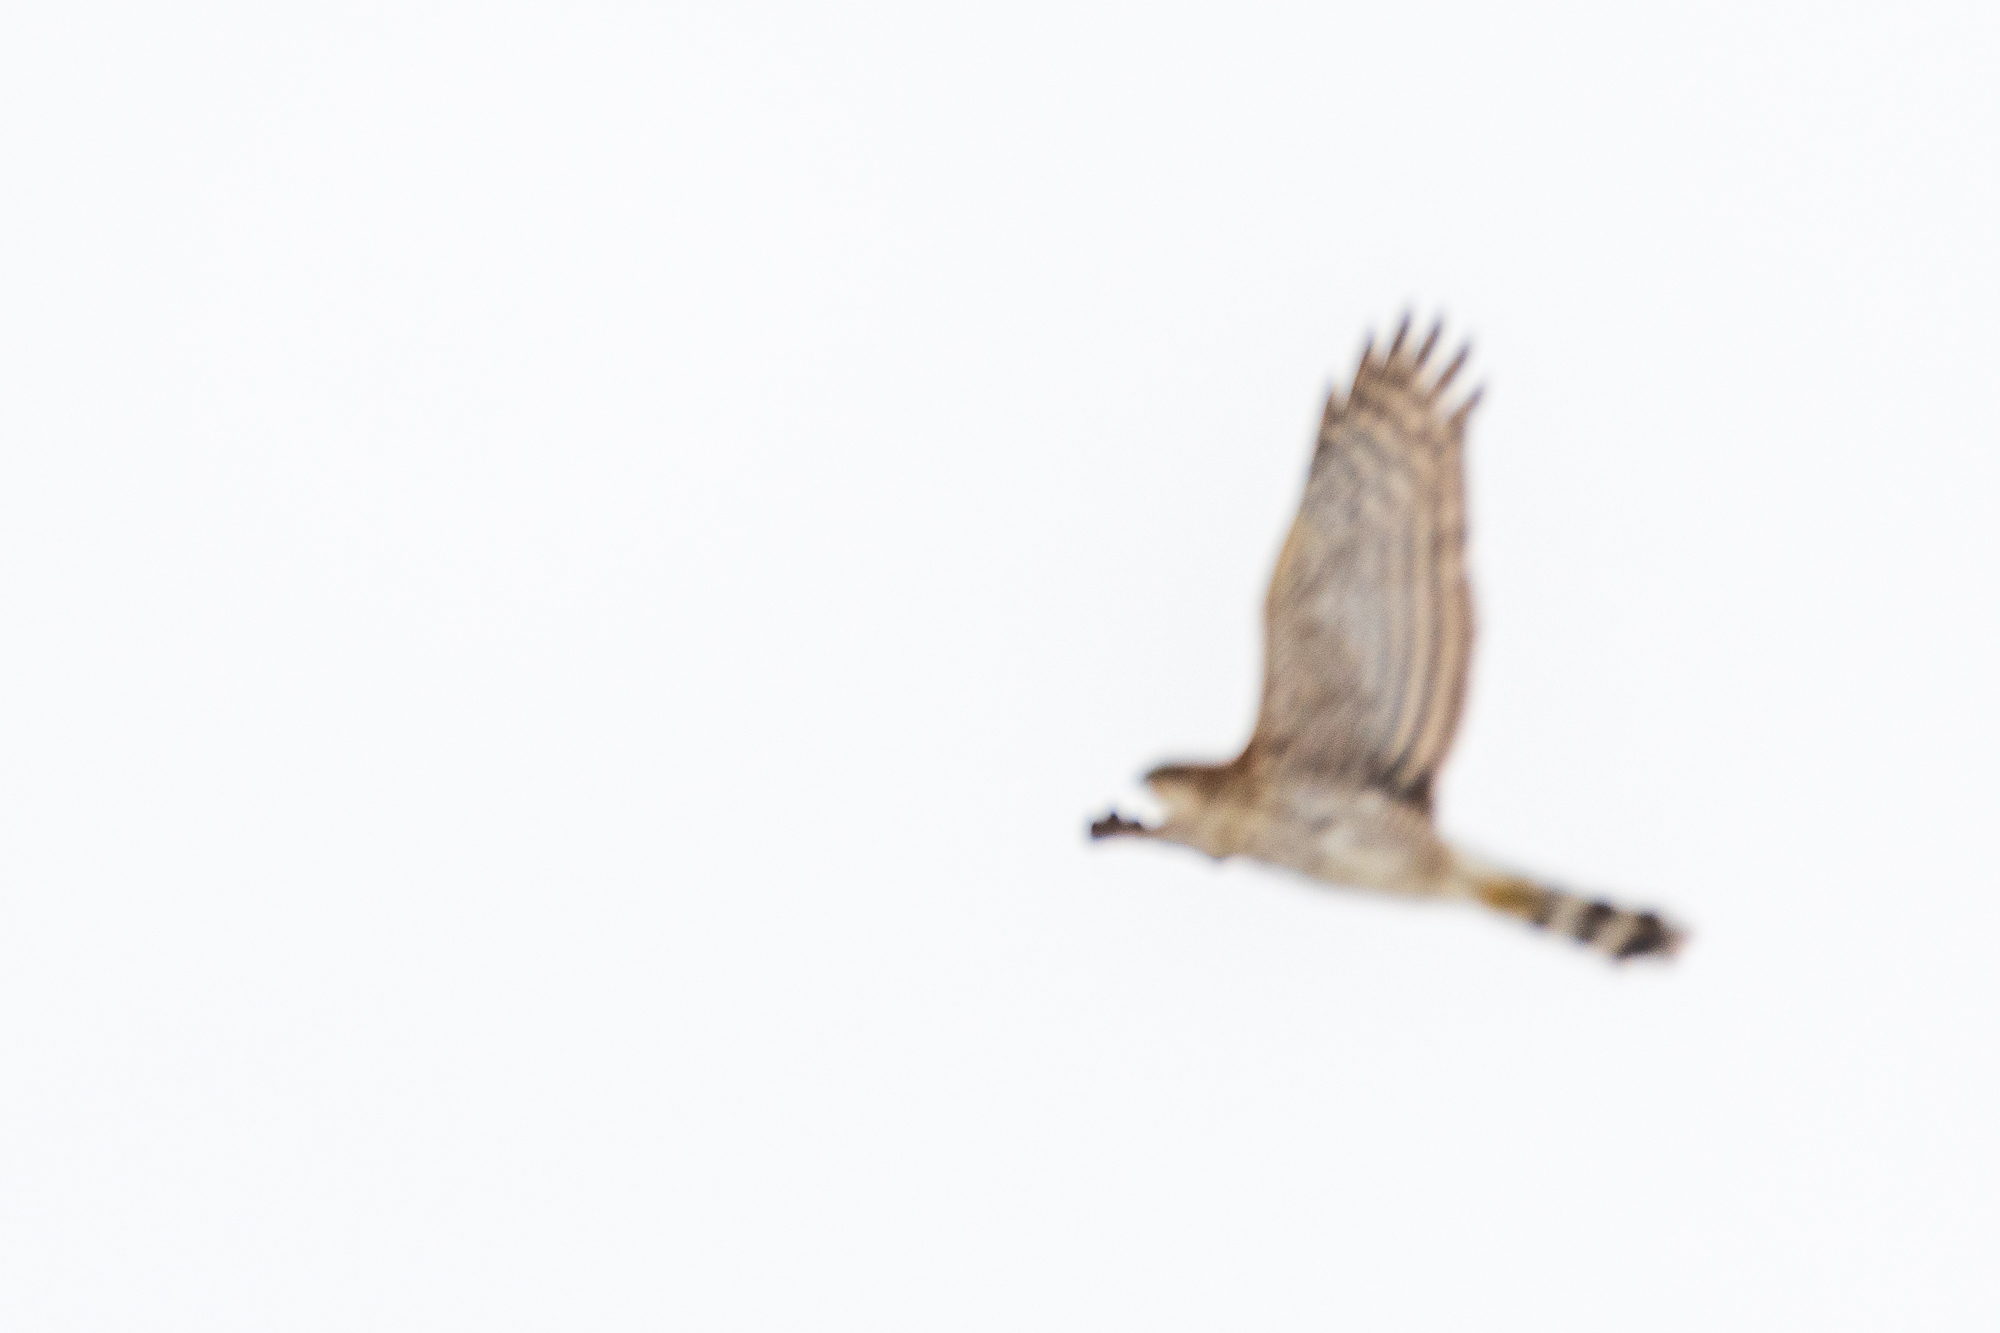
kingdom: Animalia
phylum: Chordata
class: Aves
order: Accipitriformes
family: Accipitridae
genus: Accipiter
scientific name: Accipiter cooperii
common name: Cooper's hawk
